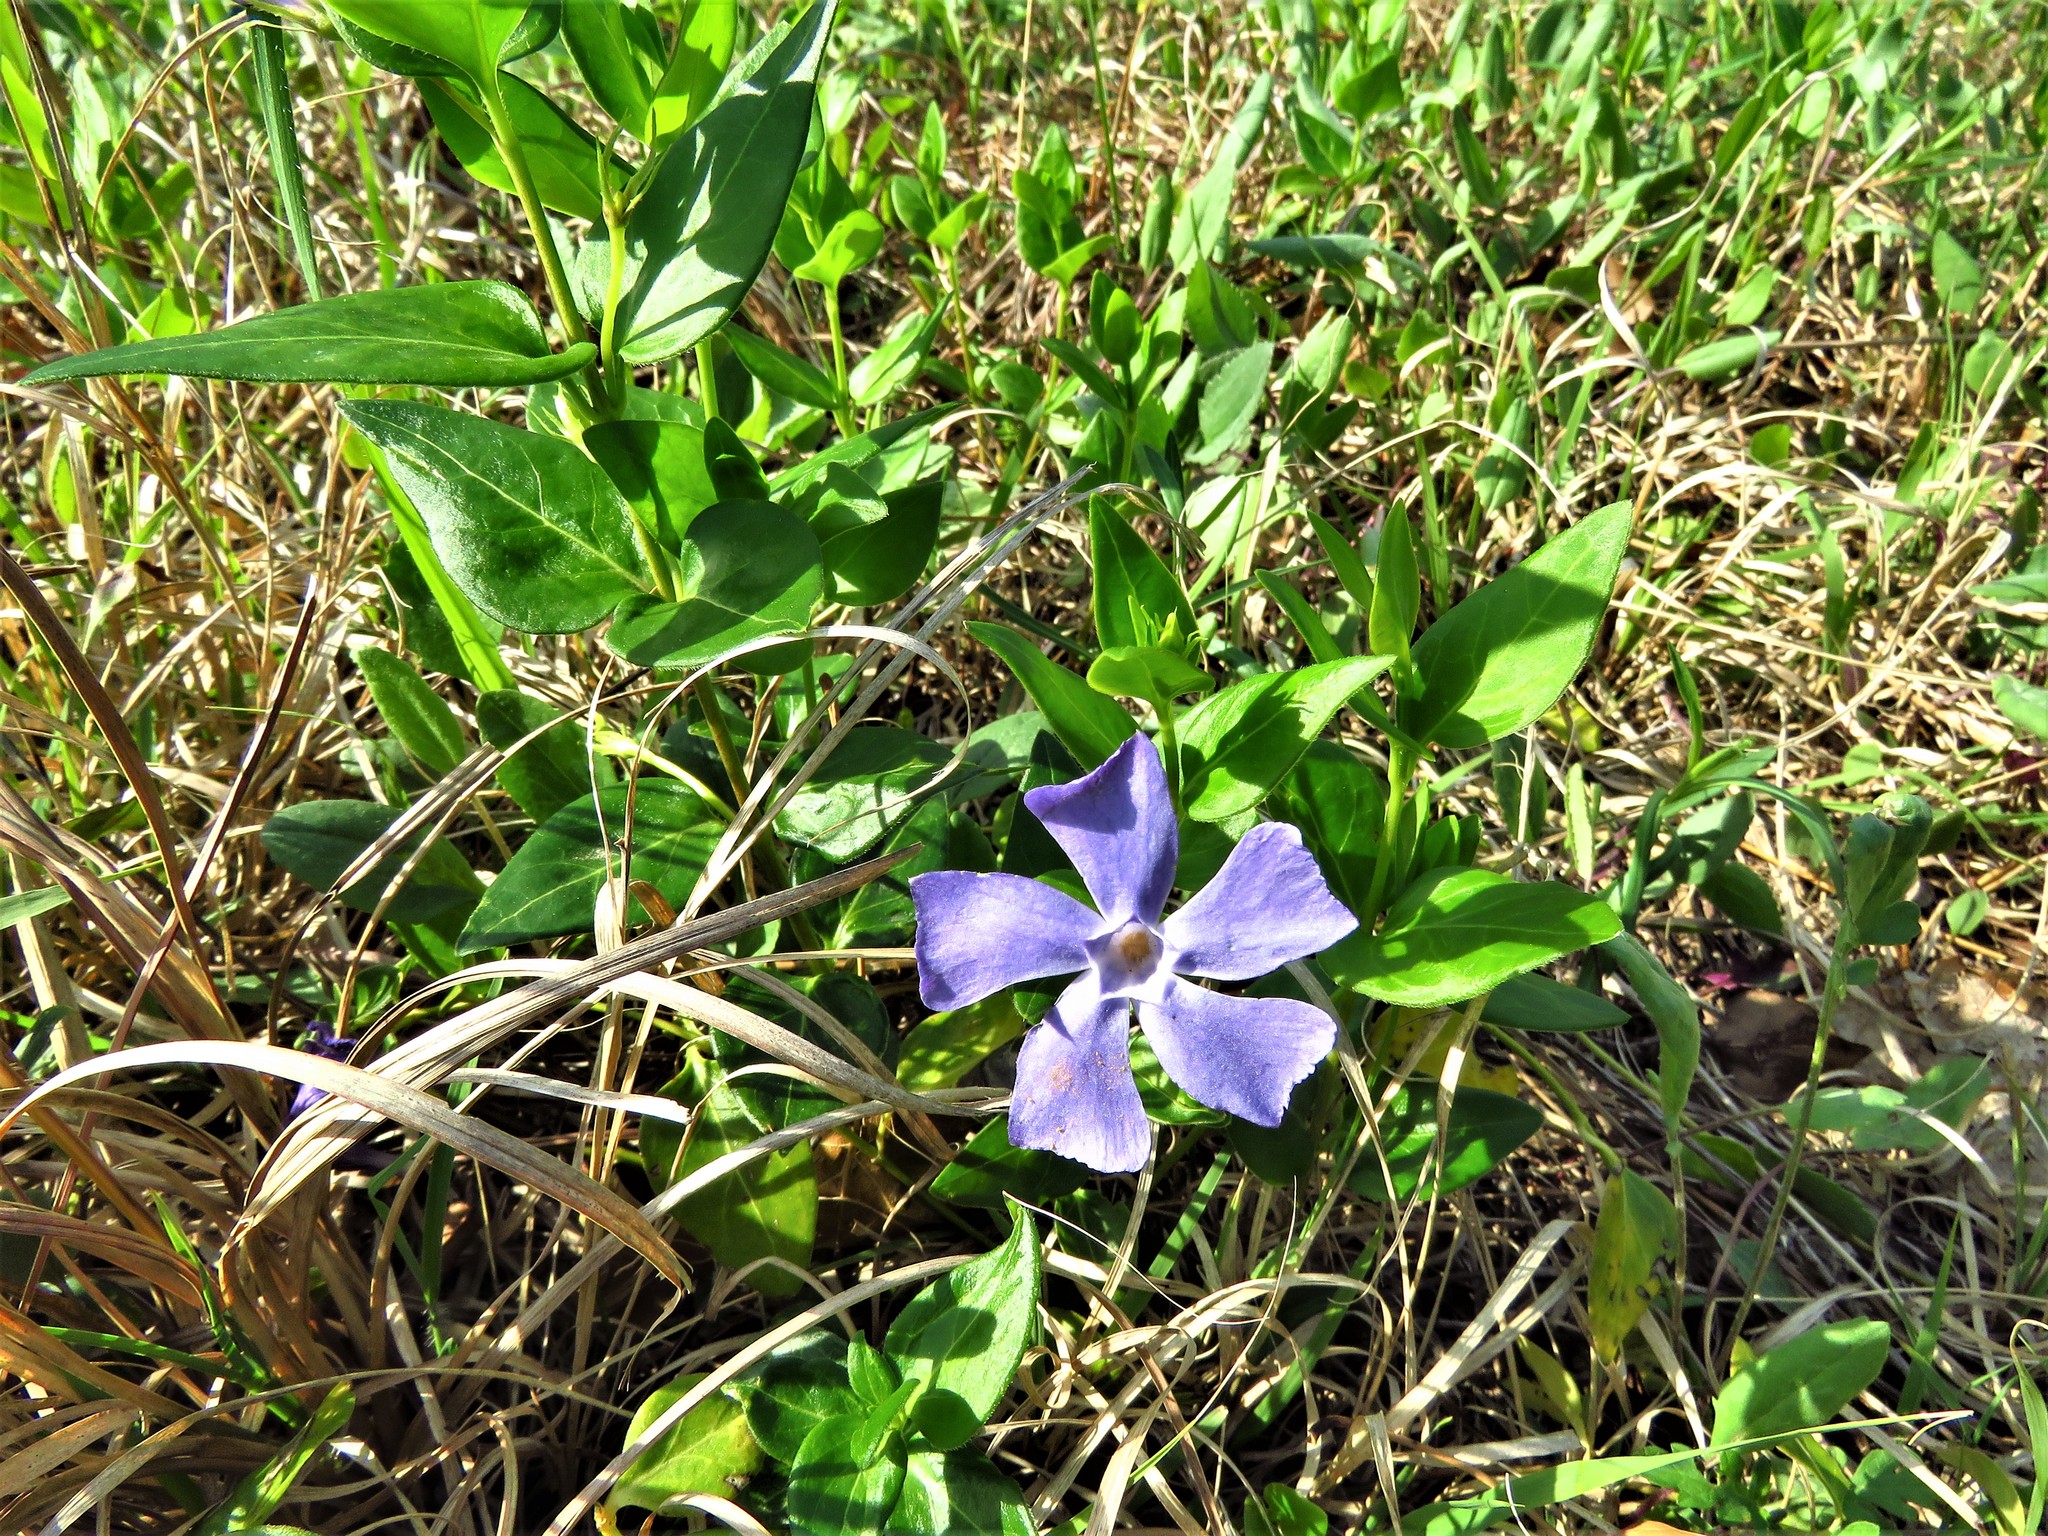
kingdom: Plantae
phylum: Tracheophyta
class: Magnoliopsida
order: Gentianales
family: Apocynaceae
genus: Vinca
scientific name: Vinca major
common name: Greater periwinkle
